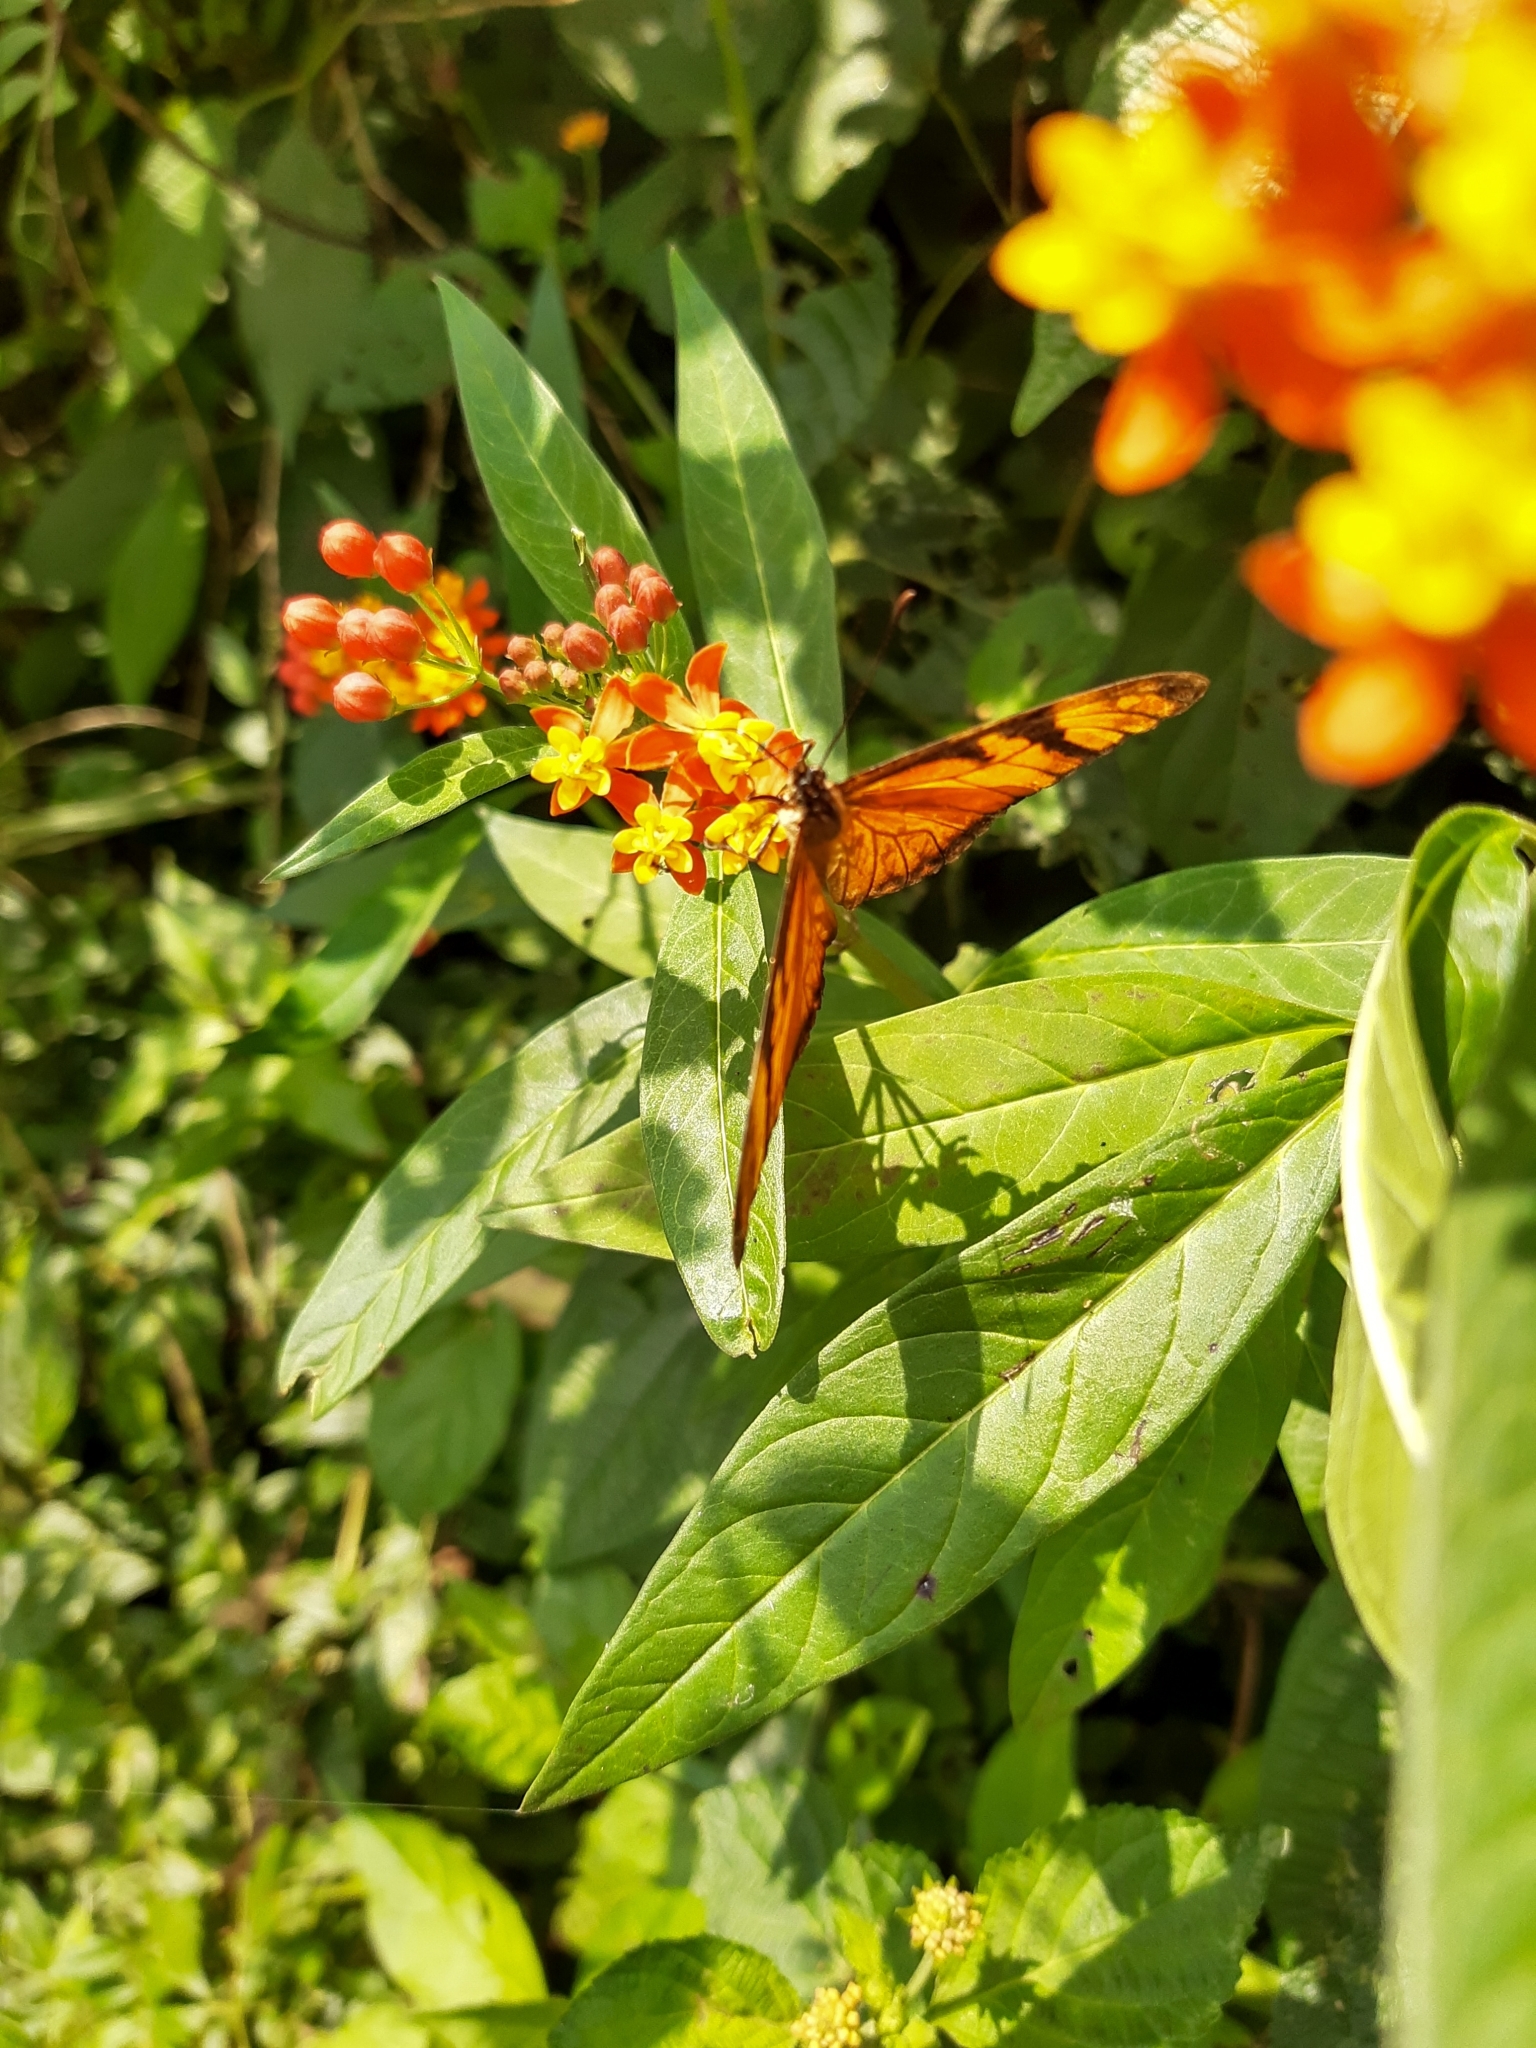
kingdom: Animalia
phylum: Arthropoda
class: Insecta
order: Lepidoptera
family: Nymphalidae
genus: Dione
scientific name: Dione juno
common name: Juno silverspot
